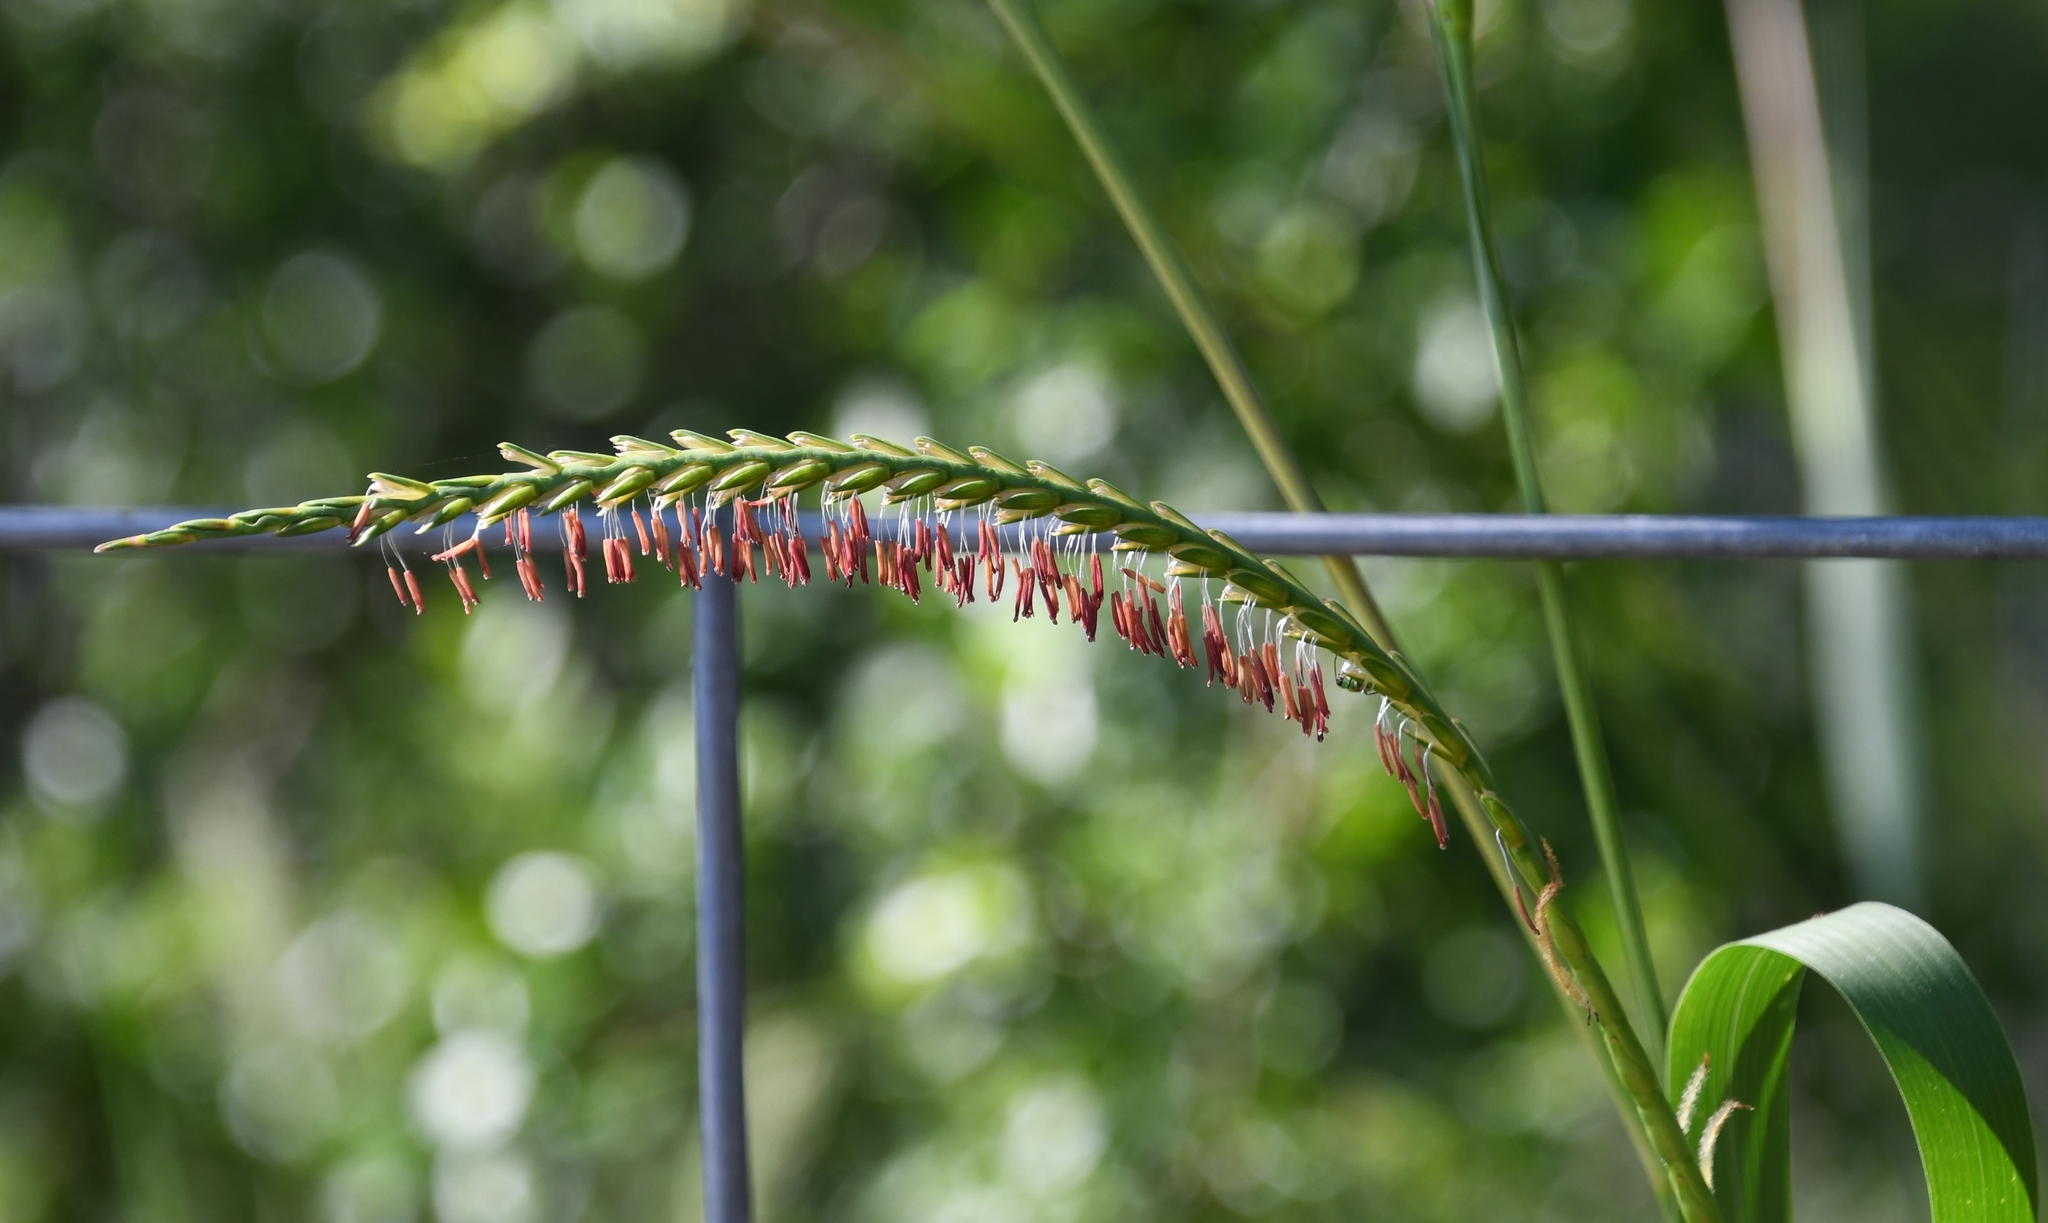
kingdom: Plantae
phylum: Tracheophyta
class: Liliopsida
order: Poales
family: Poaceae
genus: Tripsacum
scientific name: Tripsacum dactyloides
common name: Buffalo-grass
